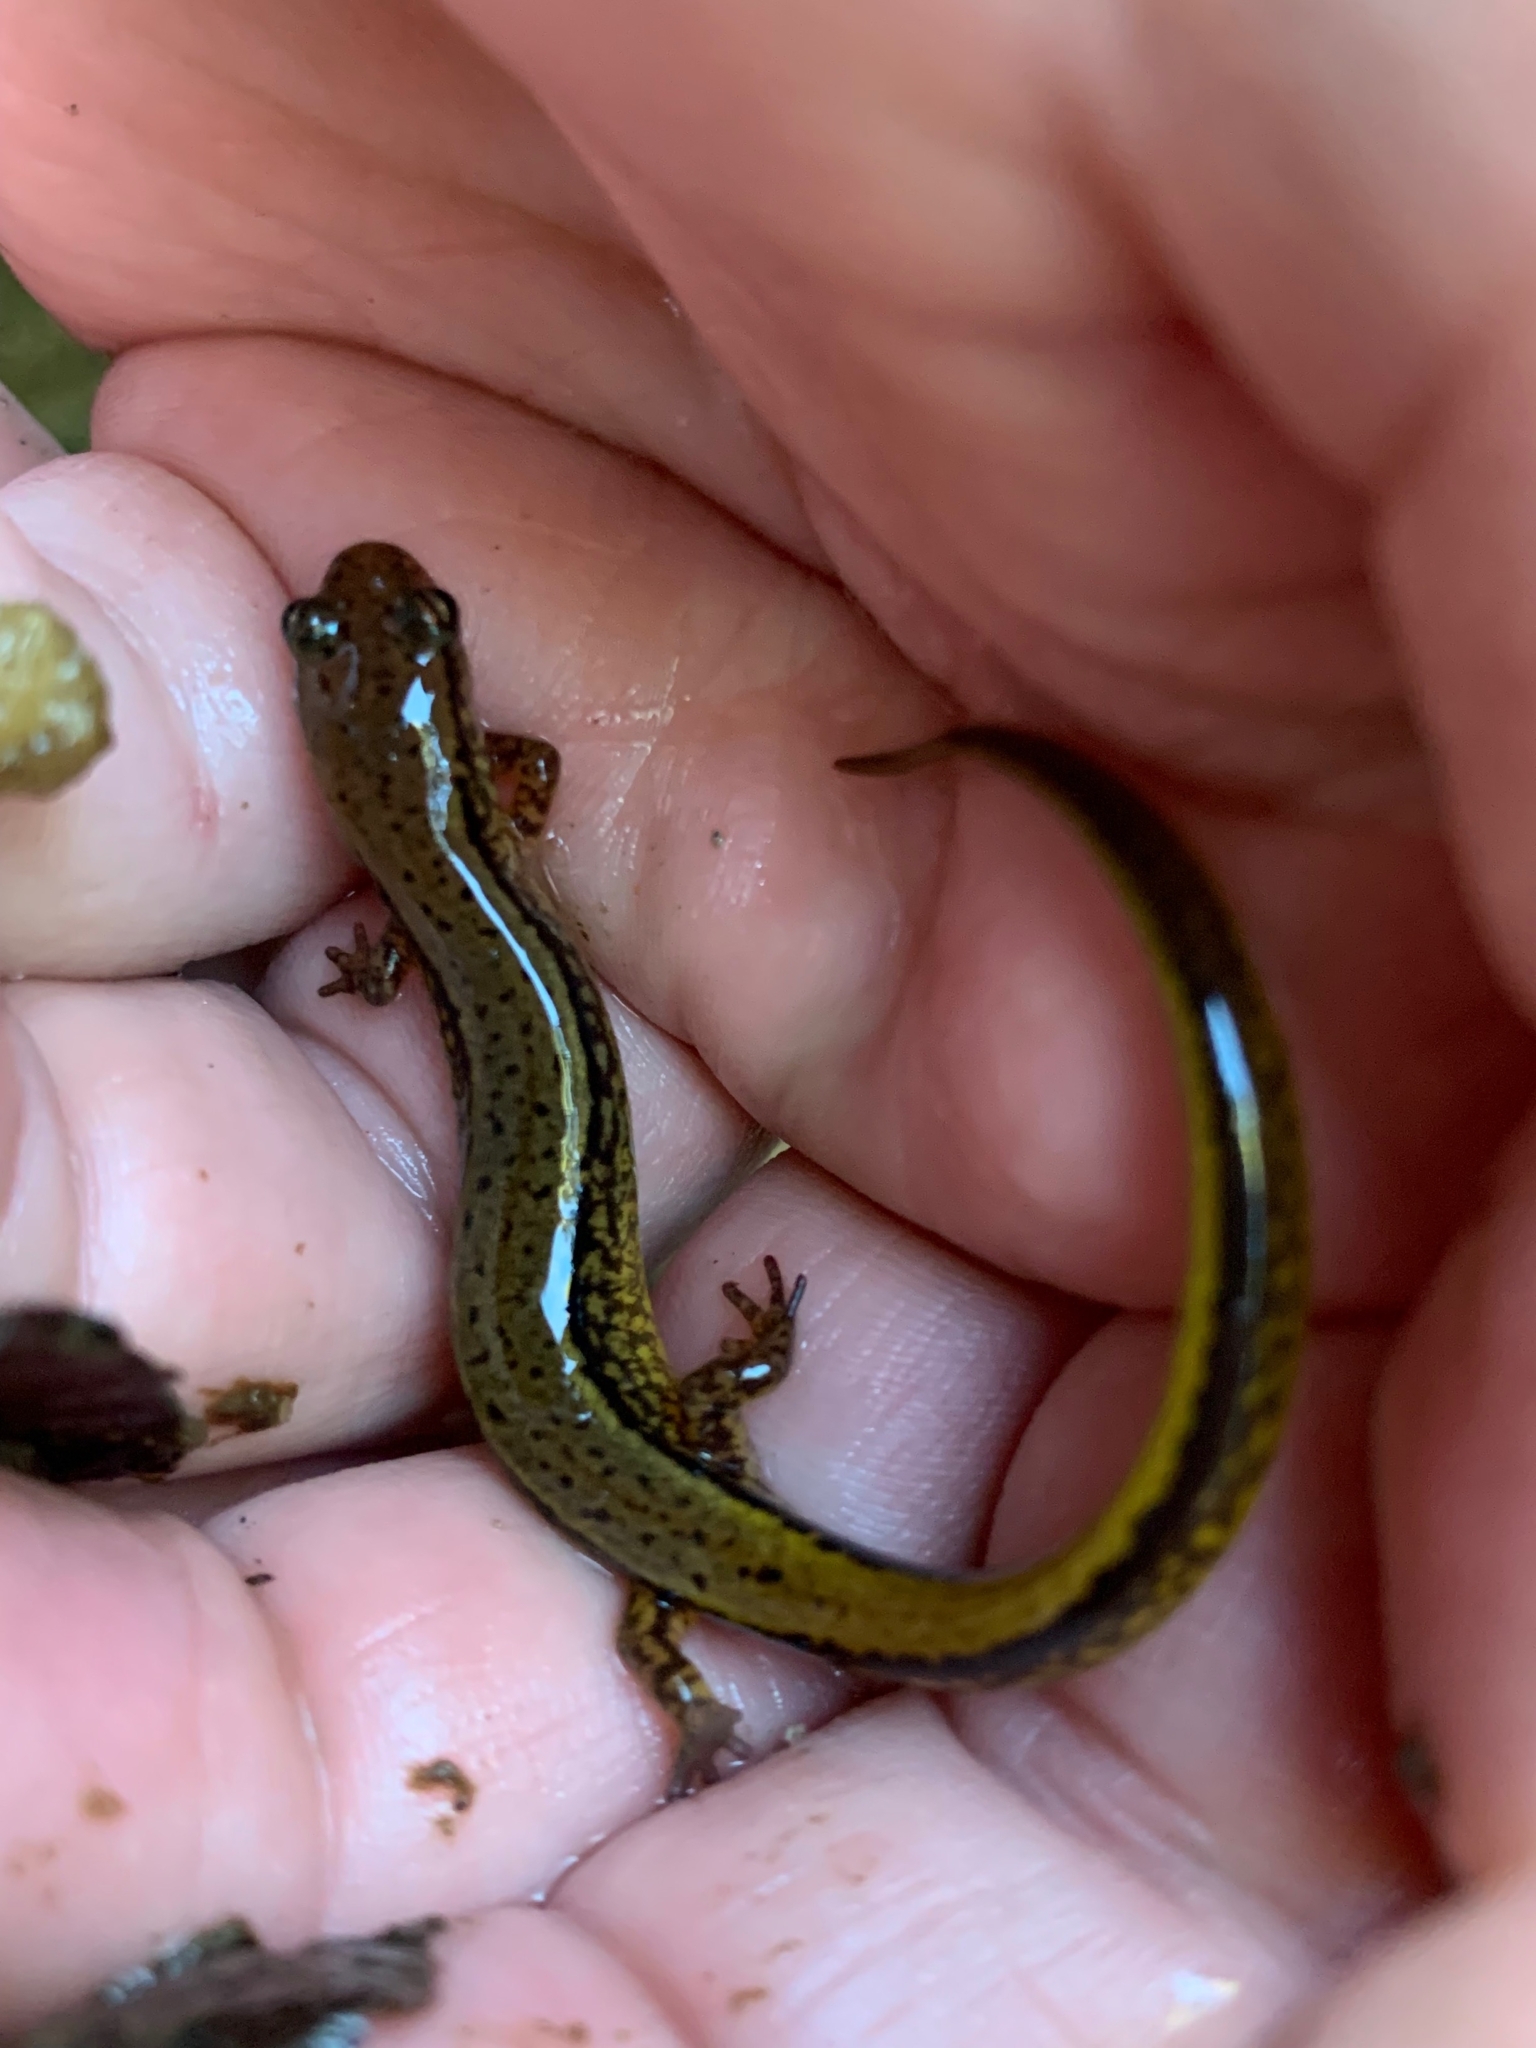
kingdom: Animalia
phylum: Chordata
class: Amphibia
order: Caudata
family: Plethodontidae
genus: Eurycea
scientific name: Eurycea cirrigera
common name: Southern two-lined salamander
